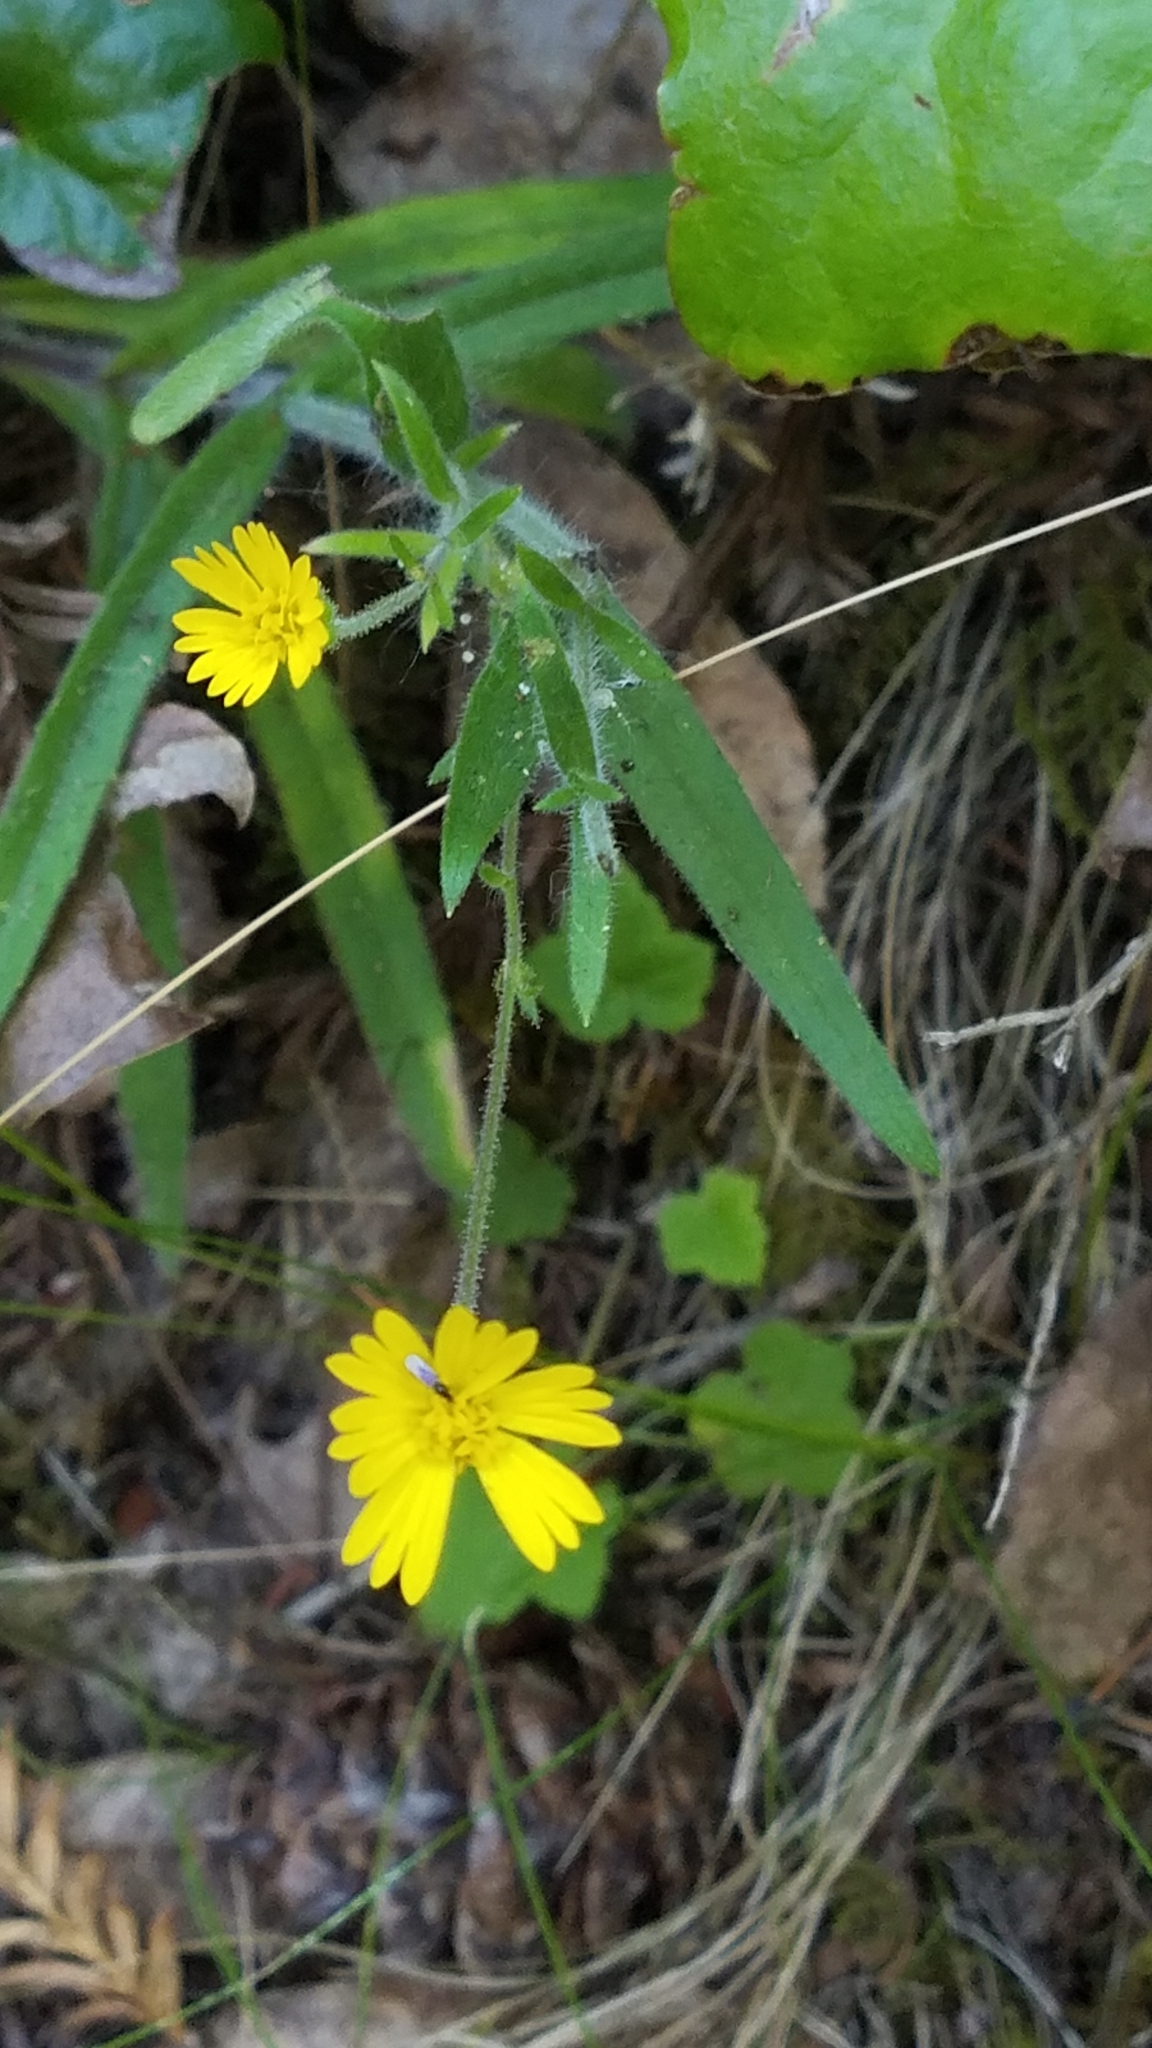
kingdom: Plantae
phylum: Tracheophyta
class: Magnoliopsida
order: Asterales
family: Asteraceae
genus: Anisocarpus
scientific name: Anisocarpus madioides
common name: Woodland madia
